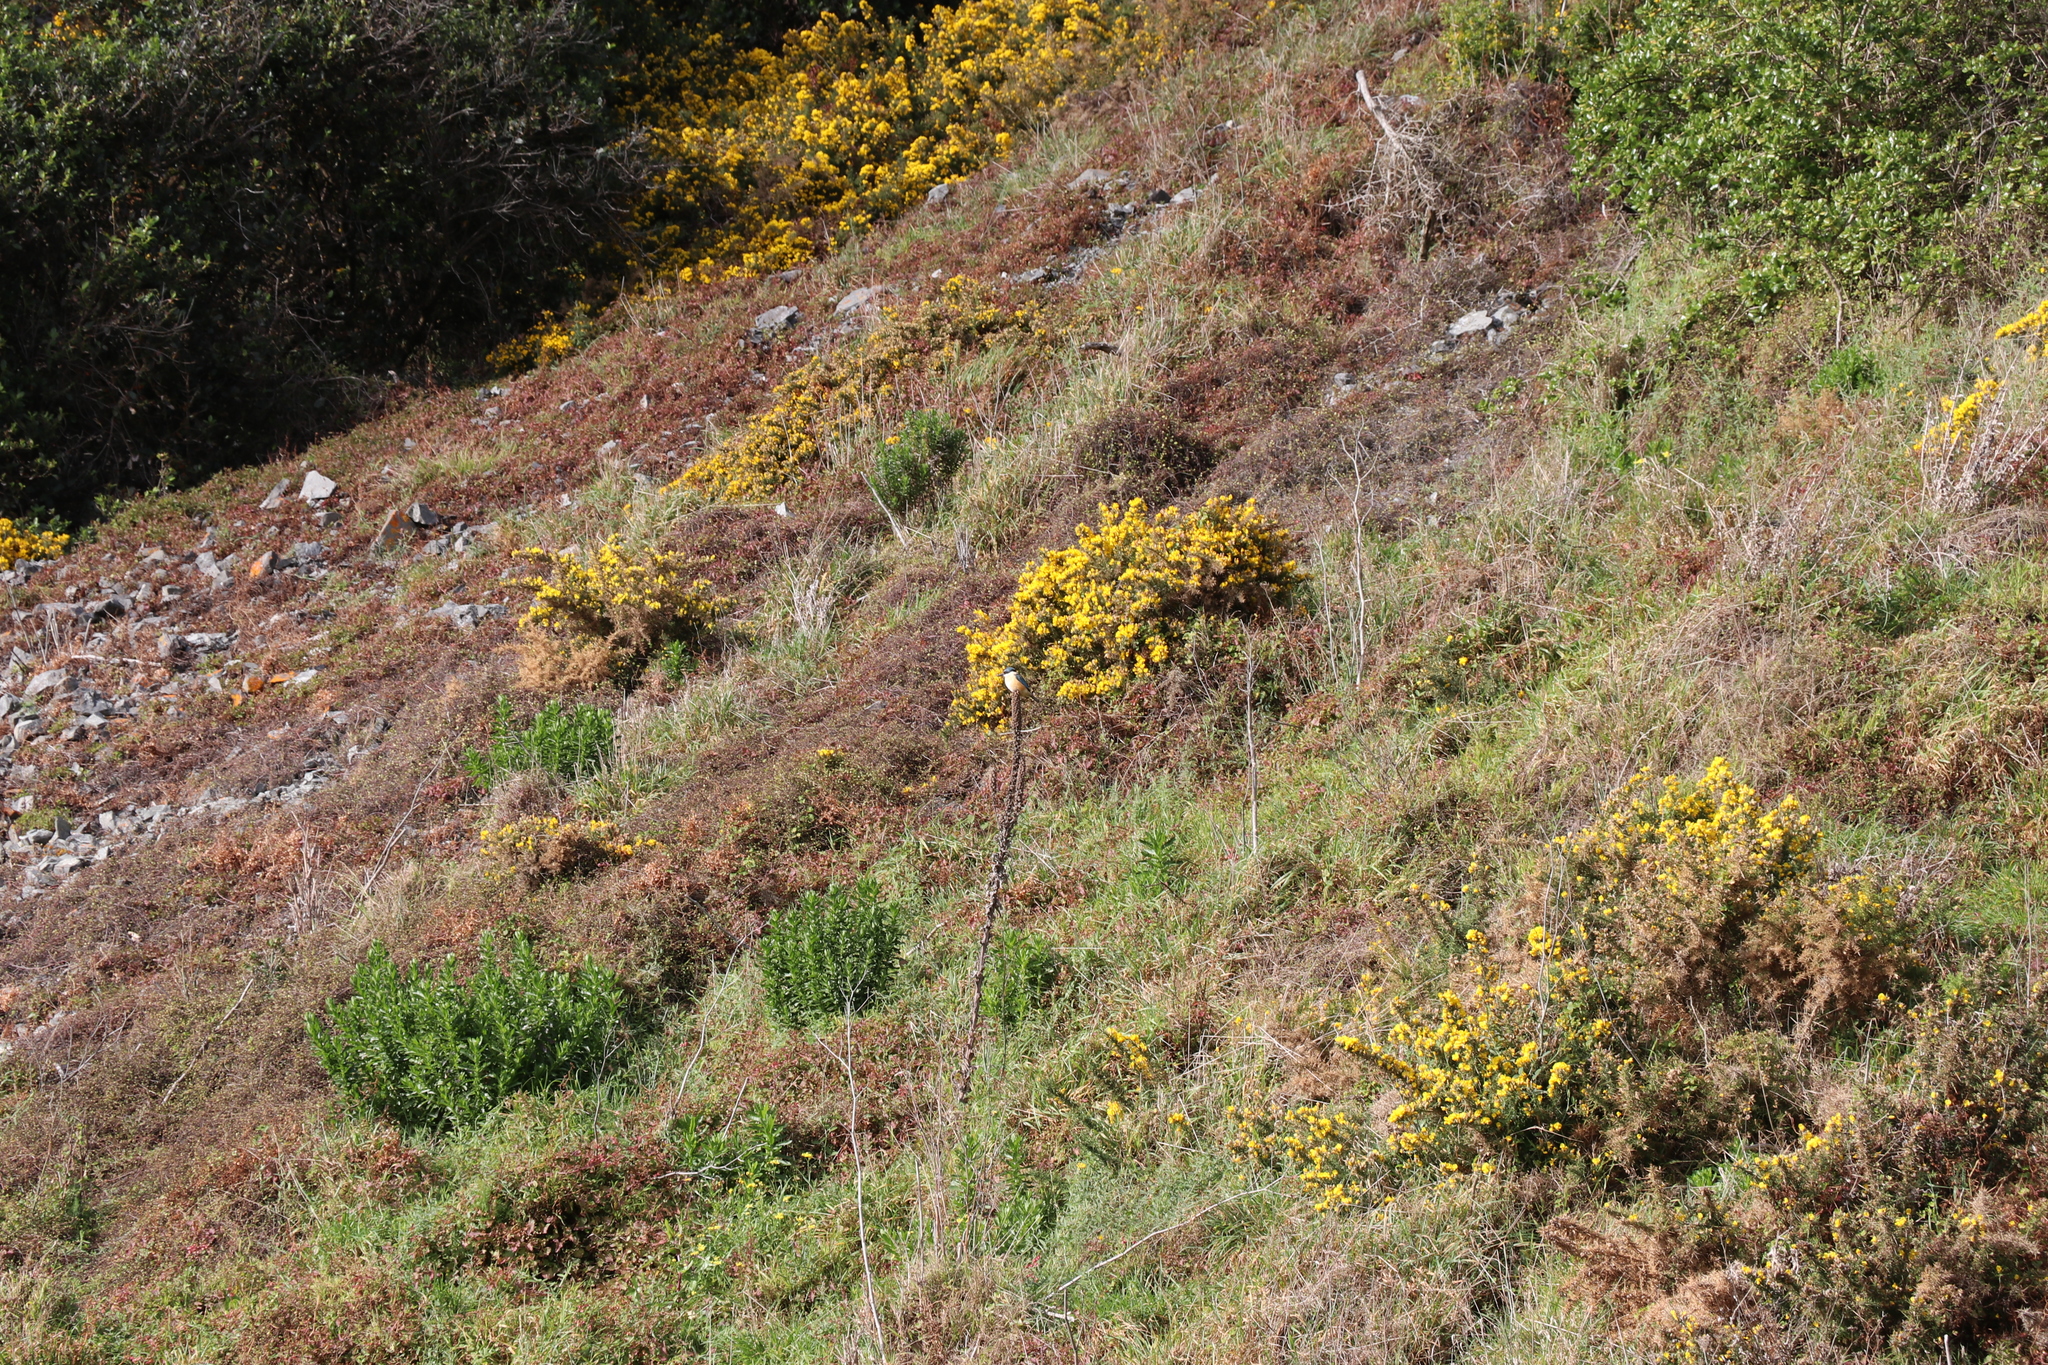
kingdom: Animalia
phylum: Chordata
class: Aves
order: Coraciiformes
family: Alcedinidae
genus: Todiramphus
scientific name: Todiramphus sanctus
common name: Sacred kingfisher
